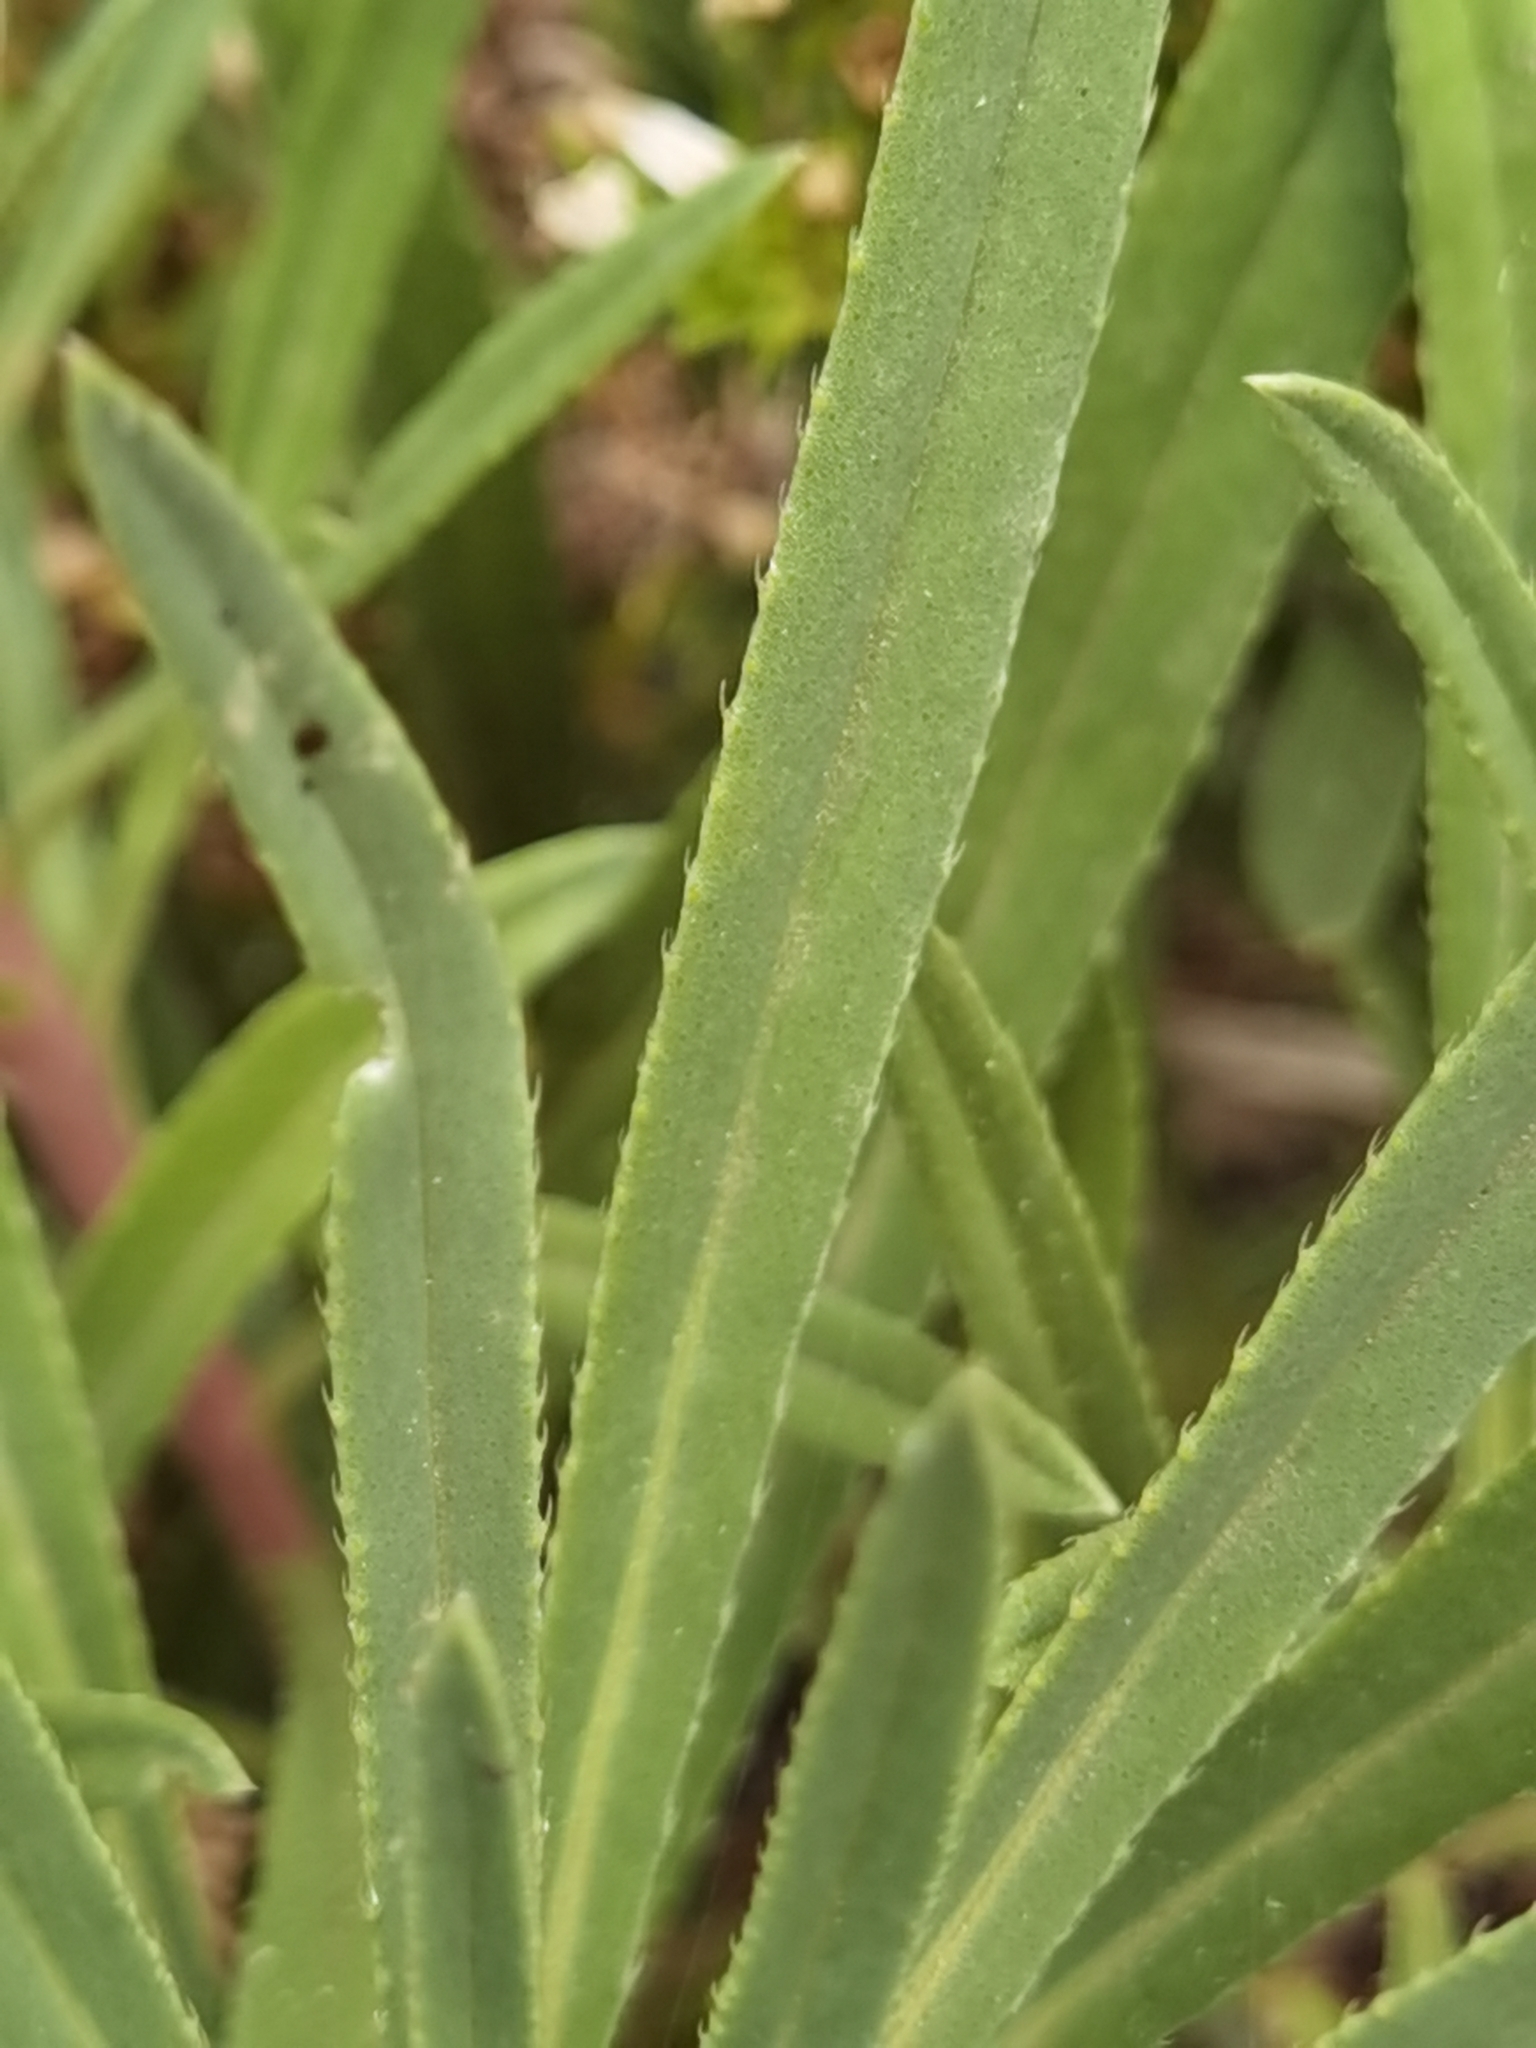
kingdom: Plantae
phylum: Tracheophyta
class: Magnoliopsida
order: Boraginales
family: Boraginaceae
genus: Echium
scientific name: Echium brevirame
